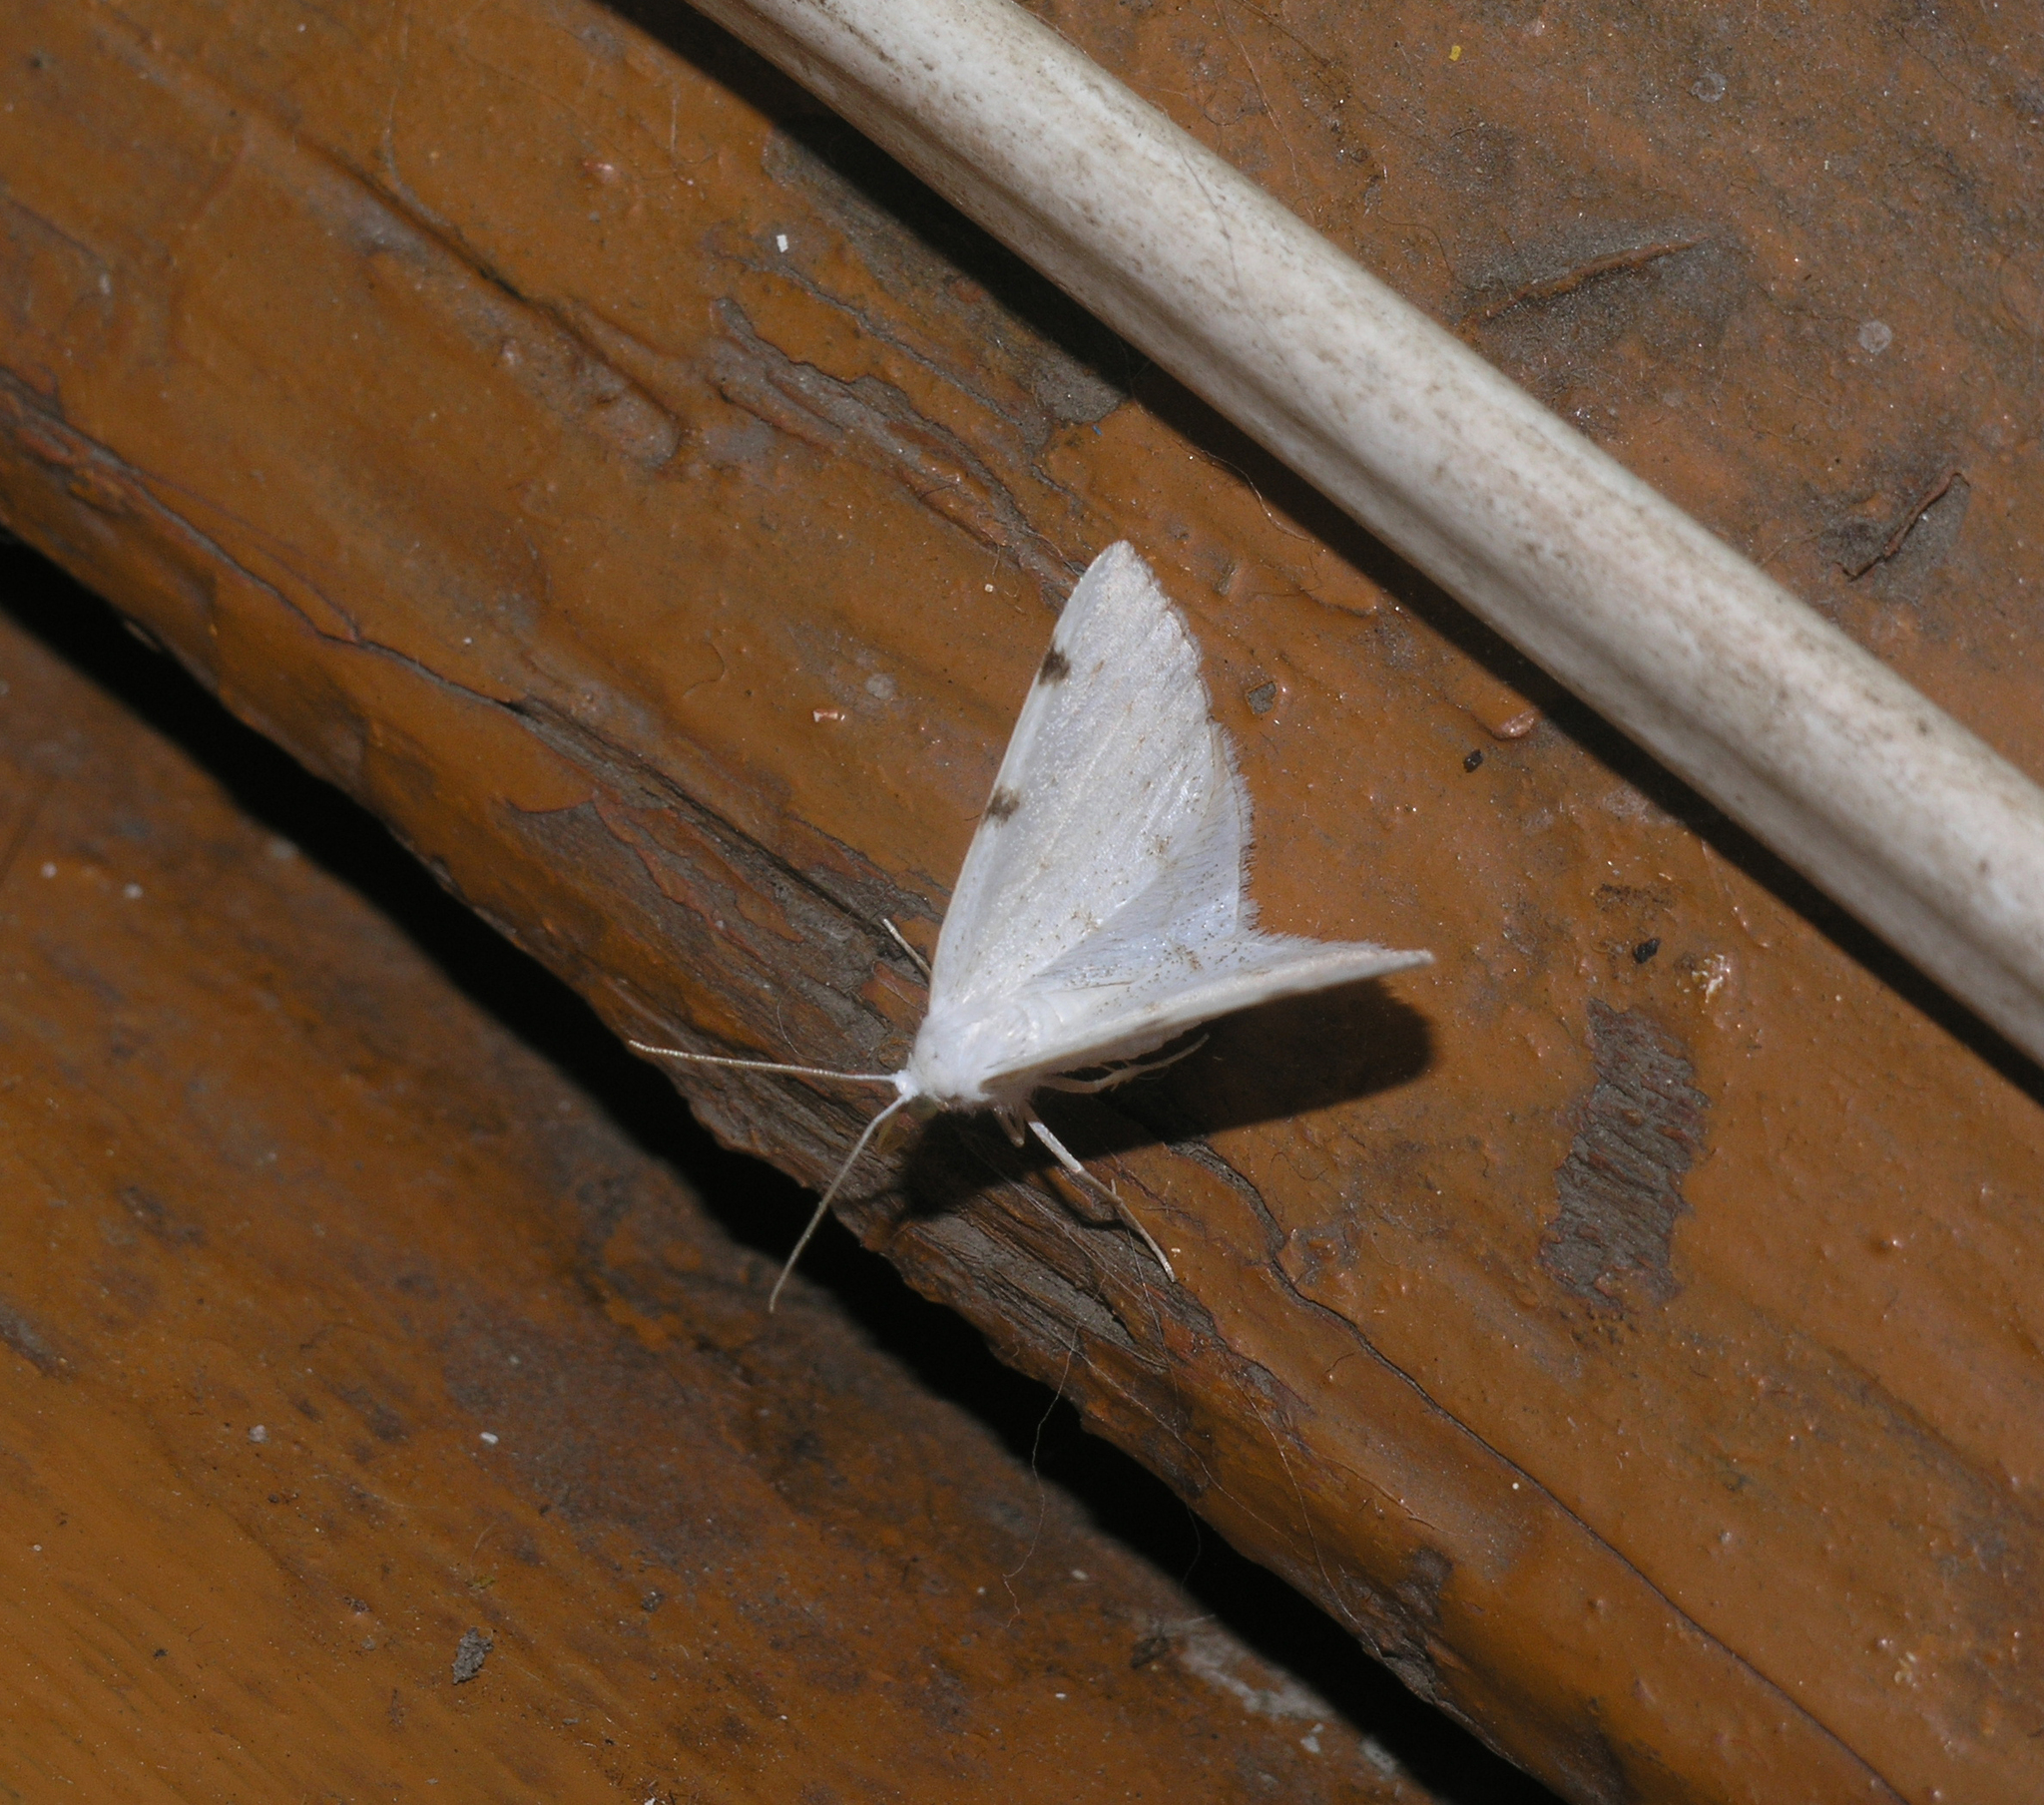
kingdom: Animalia
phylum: Arthropoda
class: Insecta
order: Lepidoptera
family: Geometridae
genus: Lomographa
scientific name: Lomographa bimaculata
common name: White-pinion spotted
